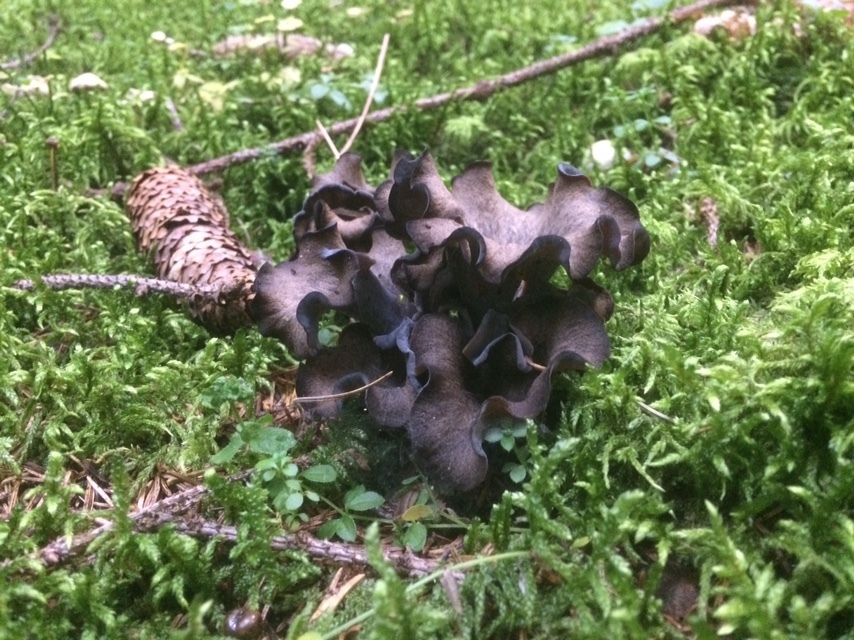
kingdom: Fungi
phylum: Basidiomycota
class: Agaricomycetes
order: Cantharellales
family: Hydnaceae
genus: Craterellus
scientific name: Craterellus cornucopioides
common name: Horn of plenty
